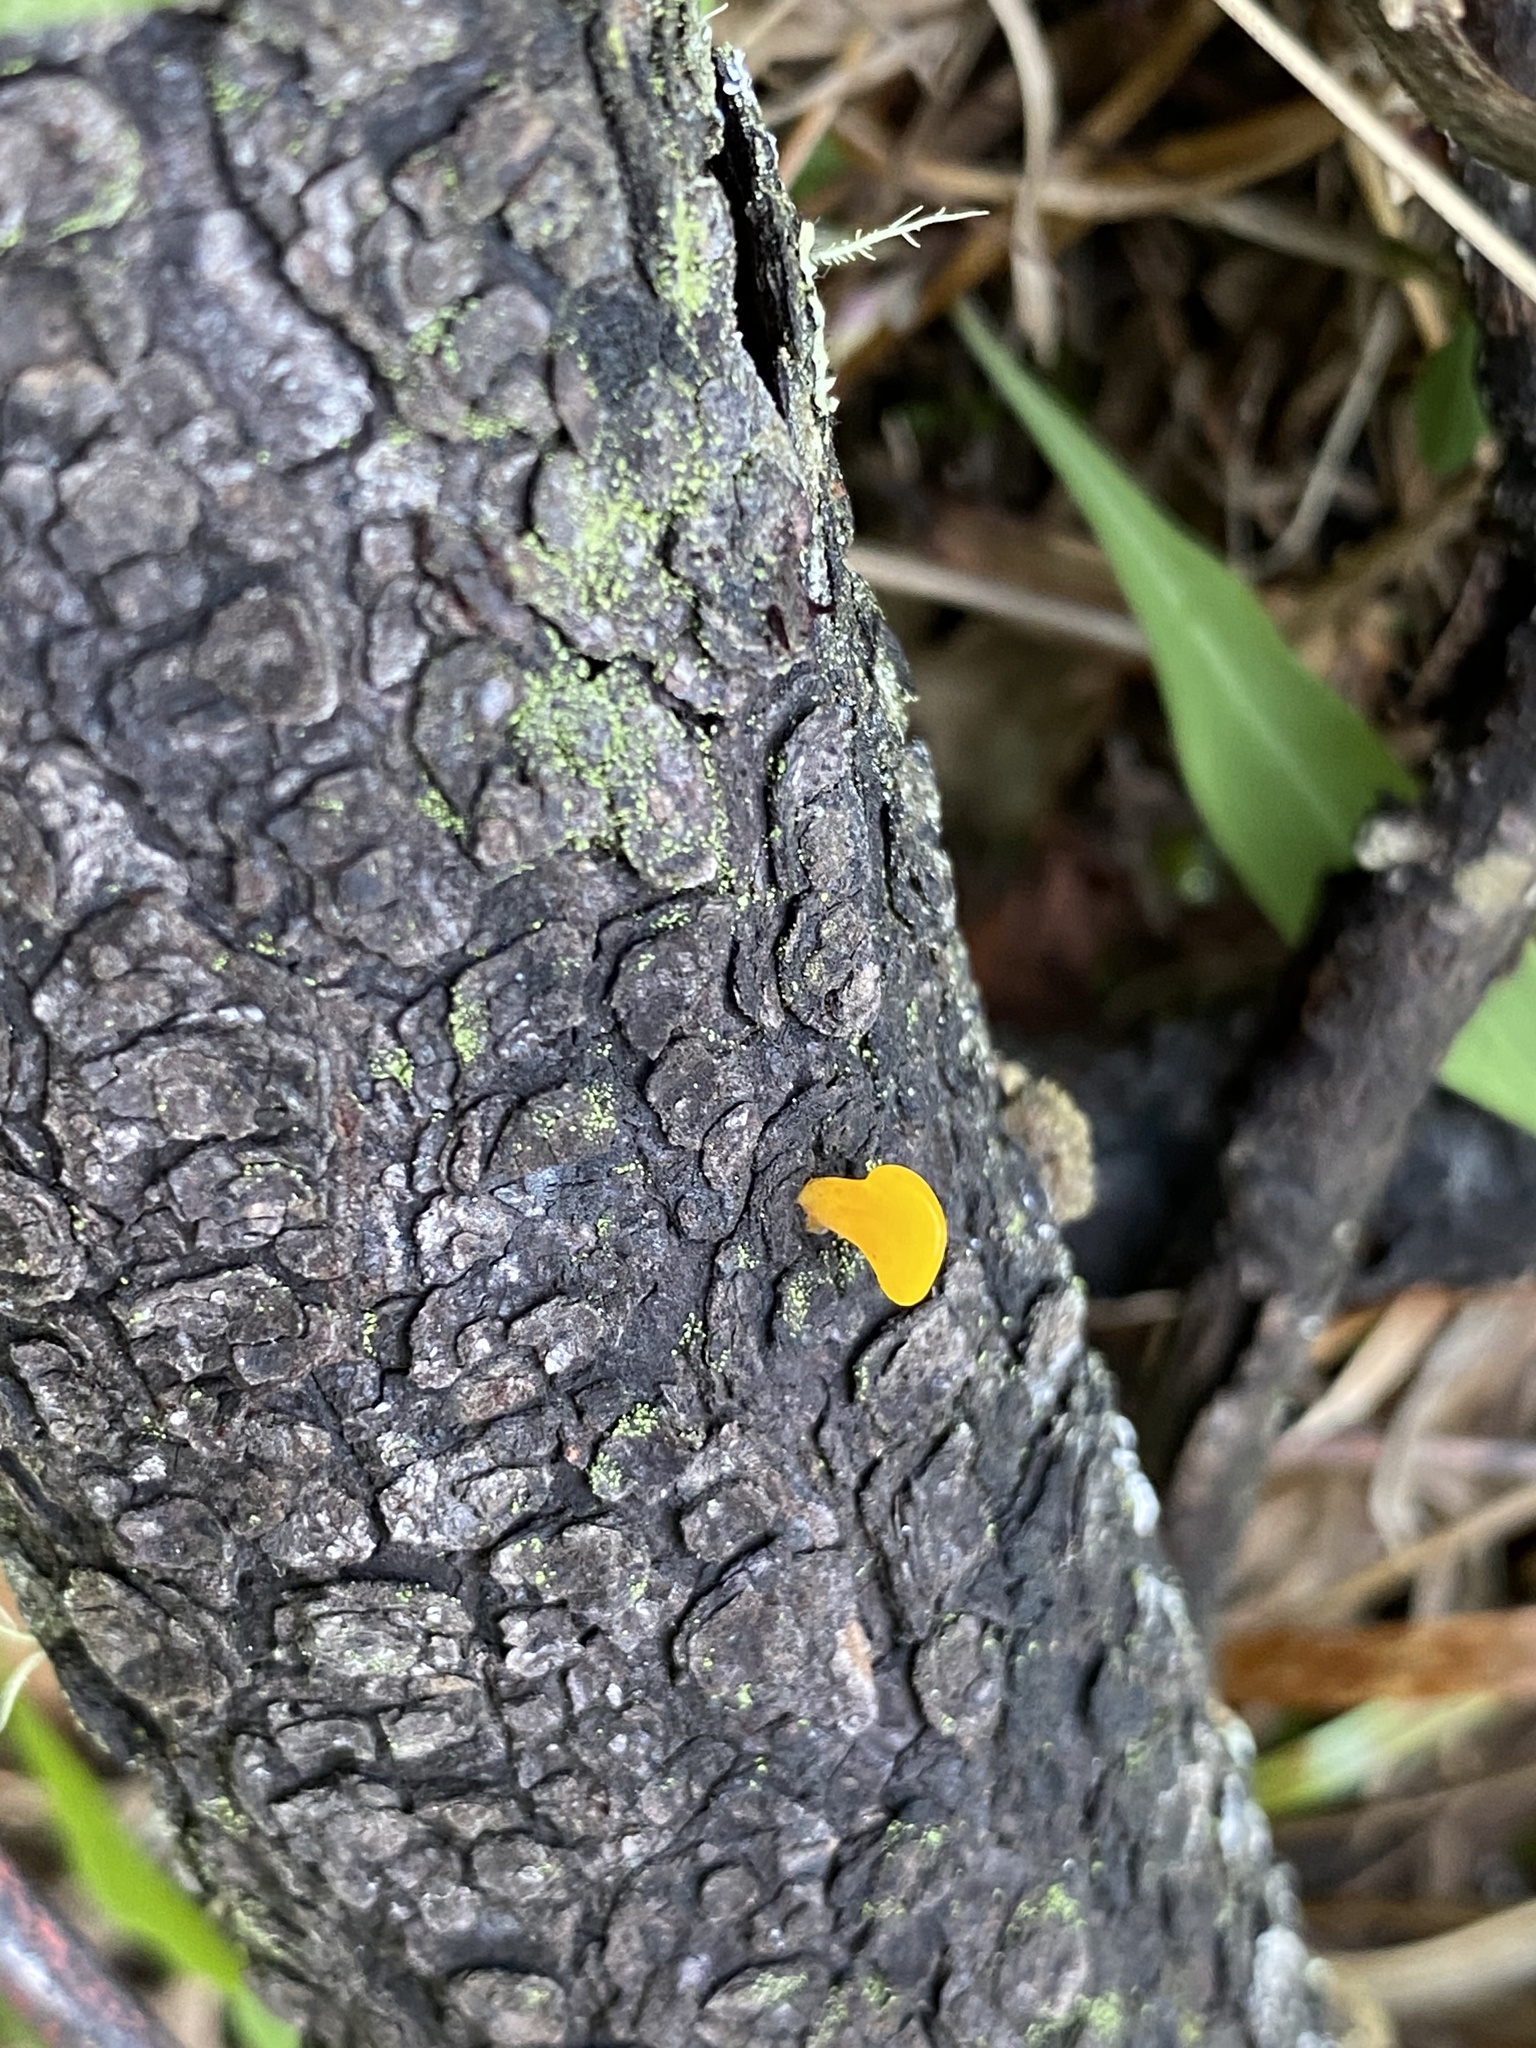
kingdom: Fungi
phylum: Basidiomycota
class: Dacrymycetes
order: Dacrymycetales
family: Dacrymycetaceae
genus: Dacrymyces
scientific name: Dacrymyces spathularius
